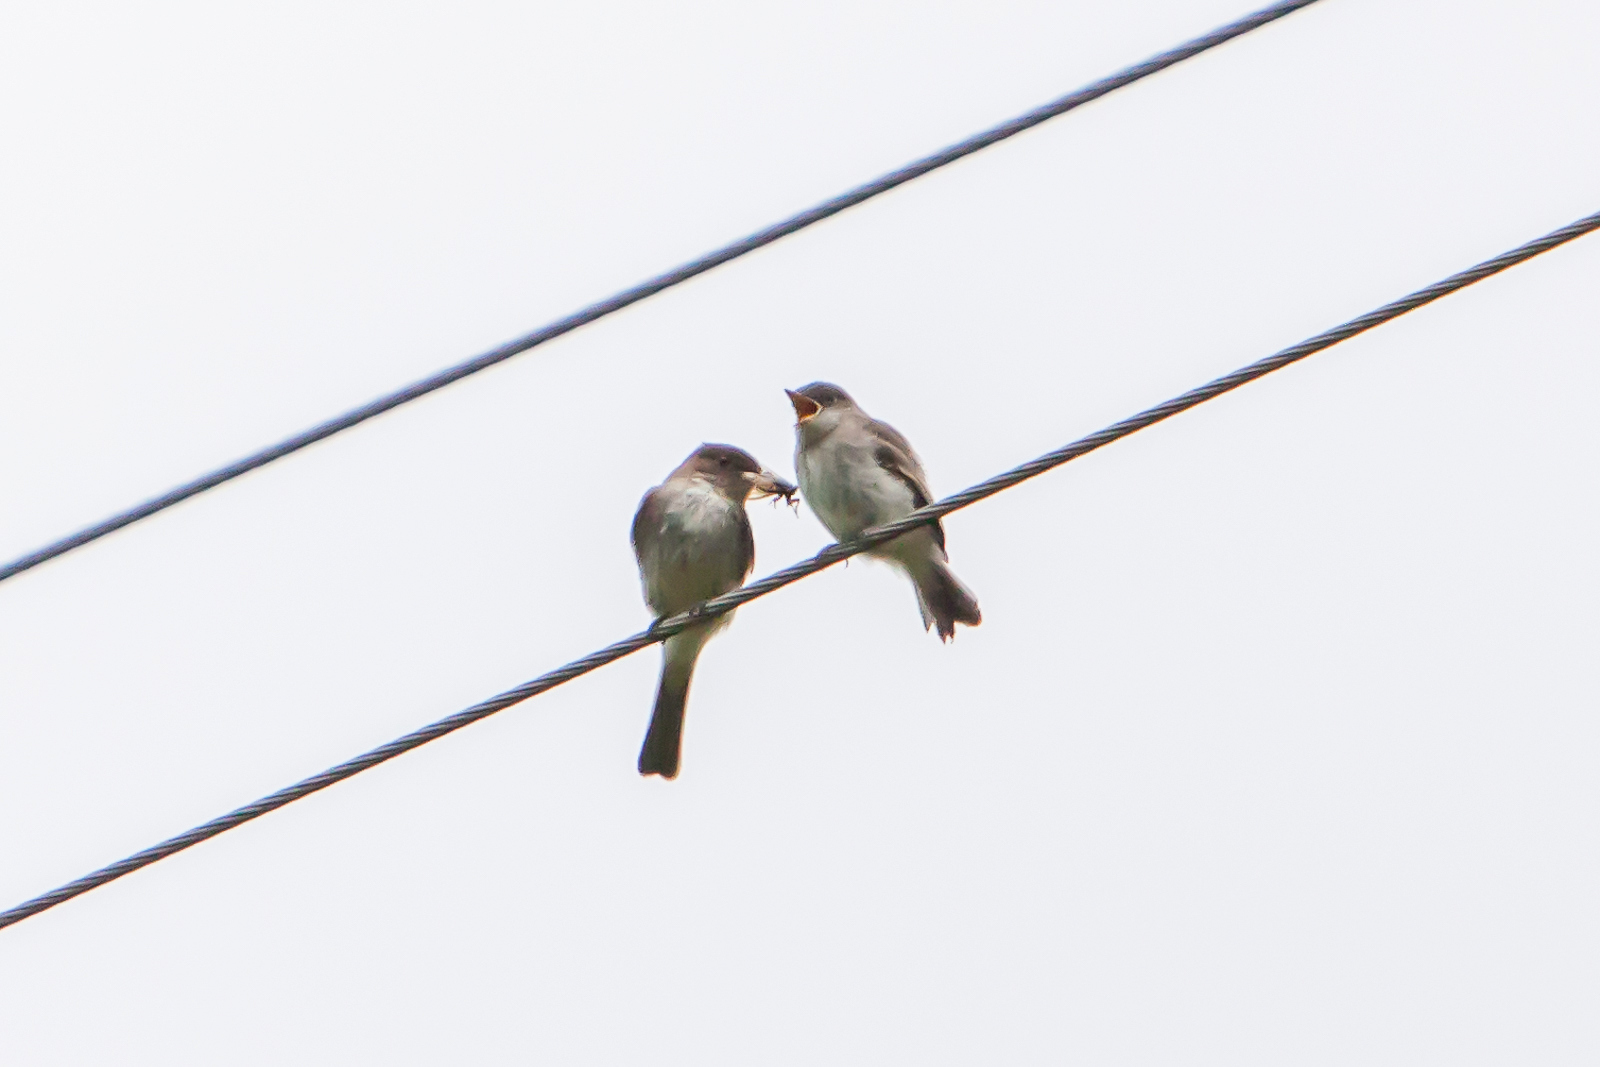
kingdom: Animalia
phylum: Chordata
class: Aves
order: Passeriformes
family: Tyrannidae
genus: Contopus
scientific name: Contopus virens
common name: Eastern wood-pewee
